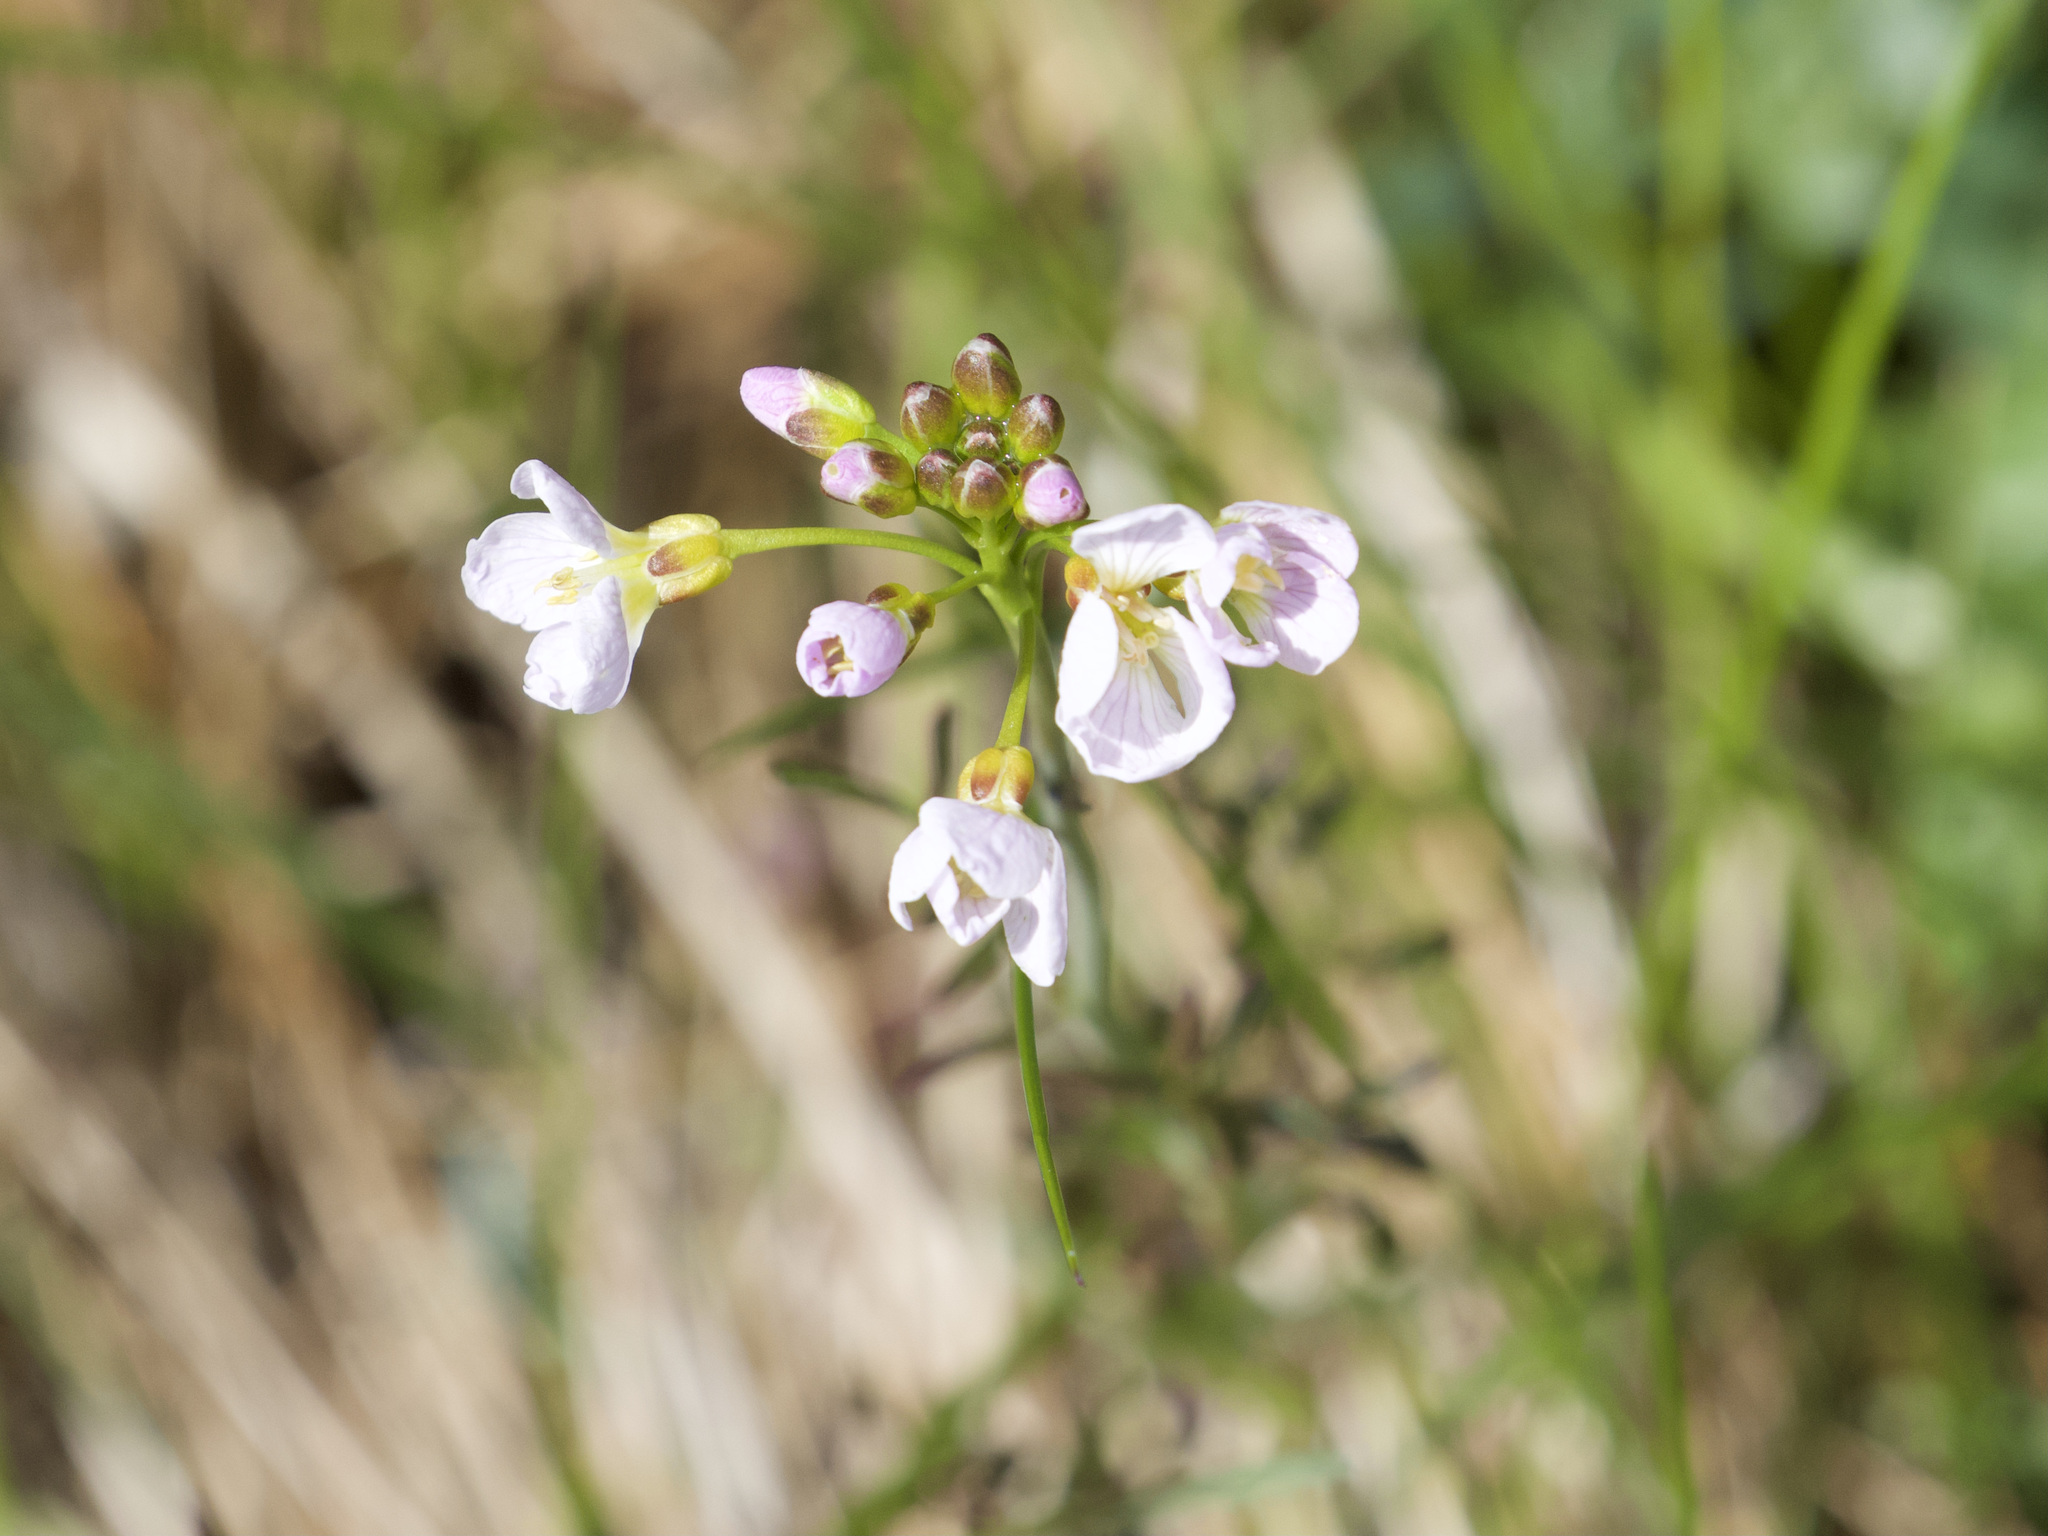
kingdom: Plantae
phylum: Tracheophyta
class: Magnoliopsida
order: Brassicales
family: Brassicaceae
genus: Cardamine
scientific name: Cardamine pratensis
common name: Cuckoo flower
